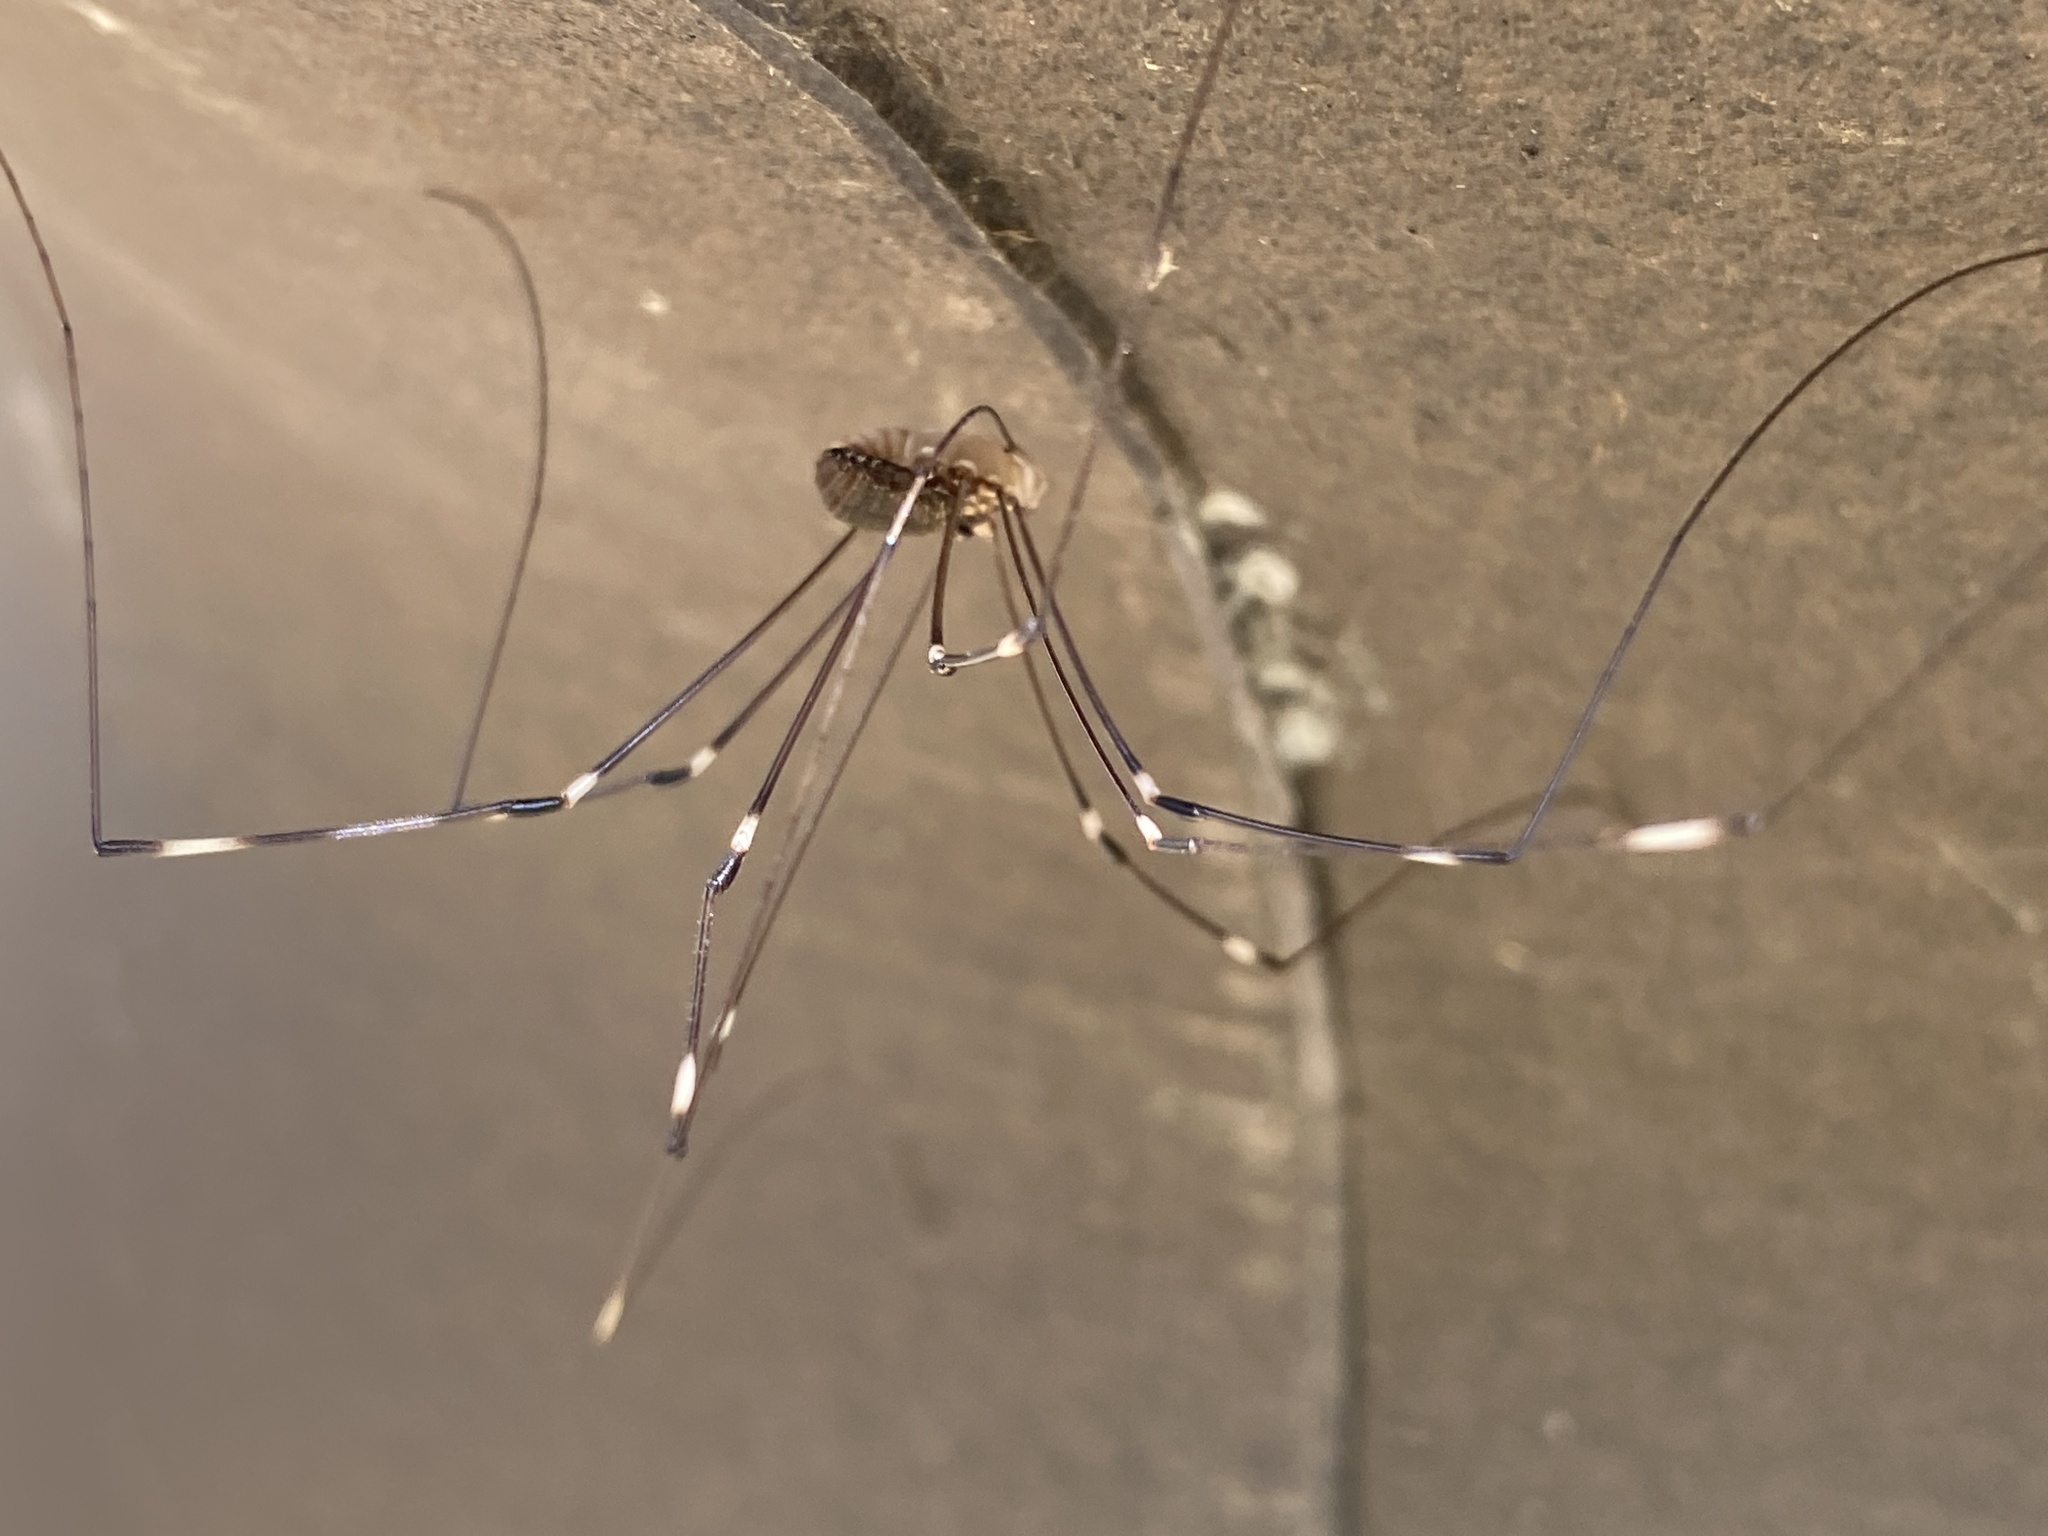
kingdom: Animalia
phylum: Arthropoda
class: Arachnida
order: Araneae
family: Pholcidae
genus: Holocnemus
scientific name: Holocnemus pluchei
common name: Marbled cellar spider
